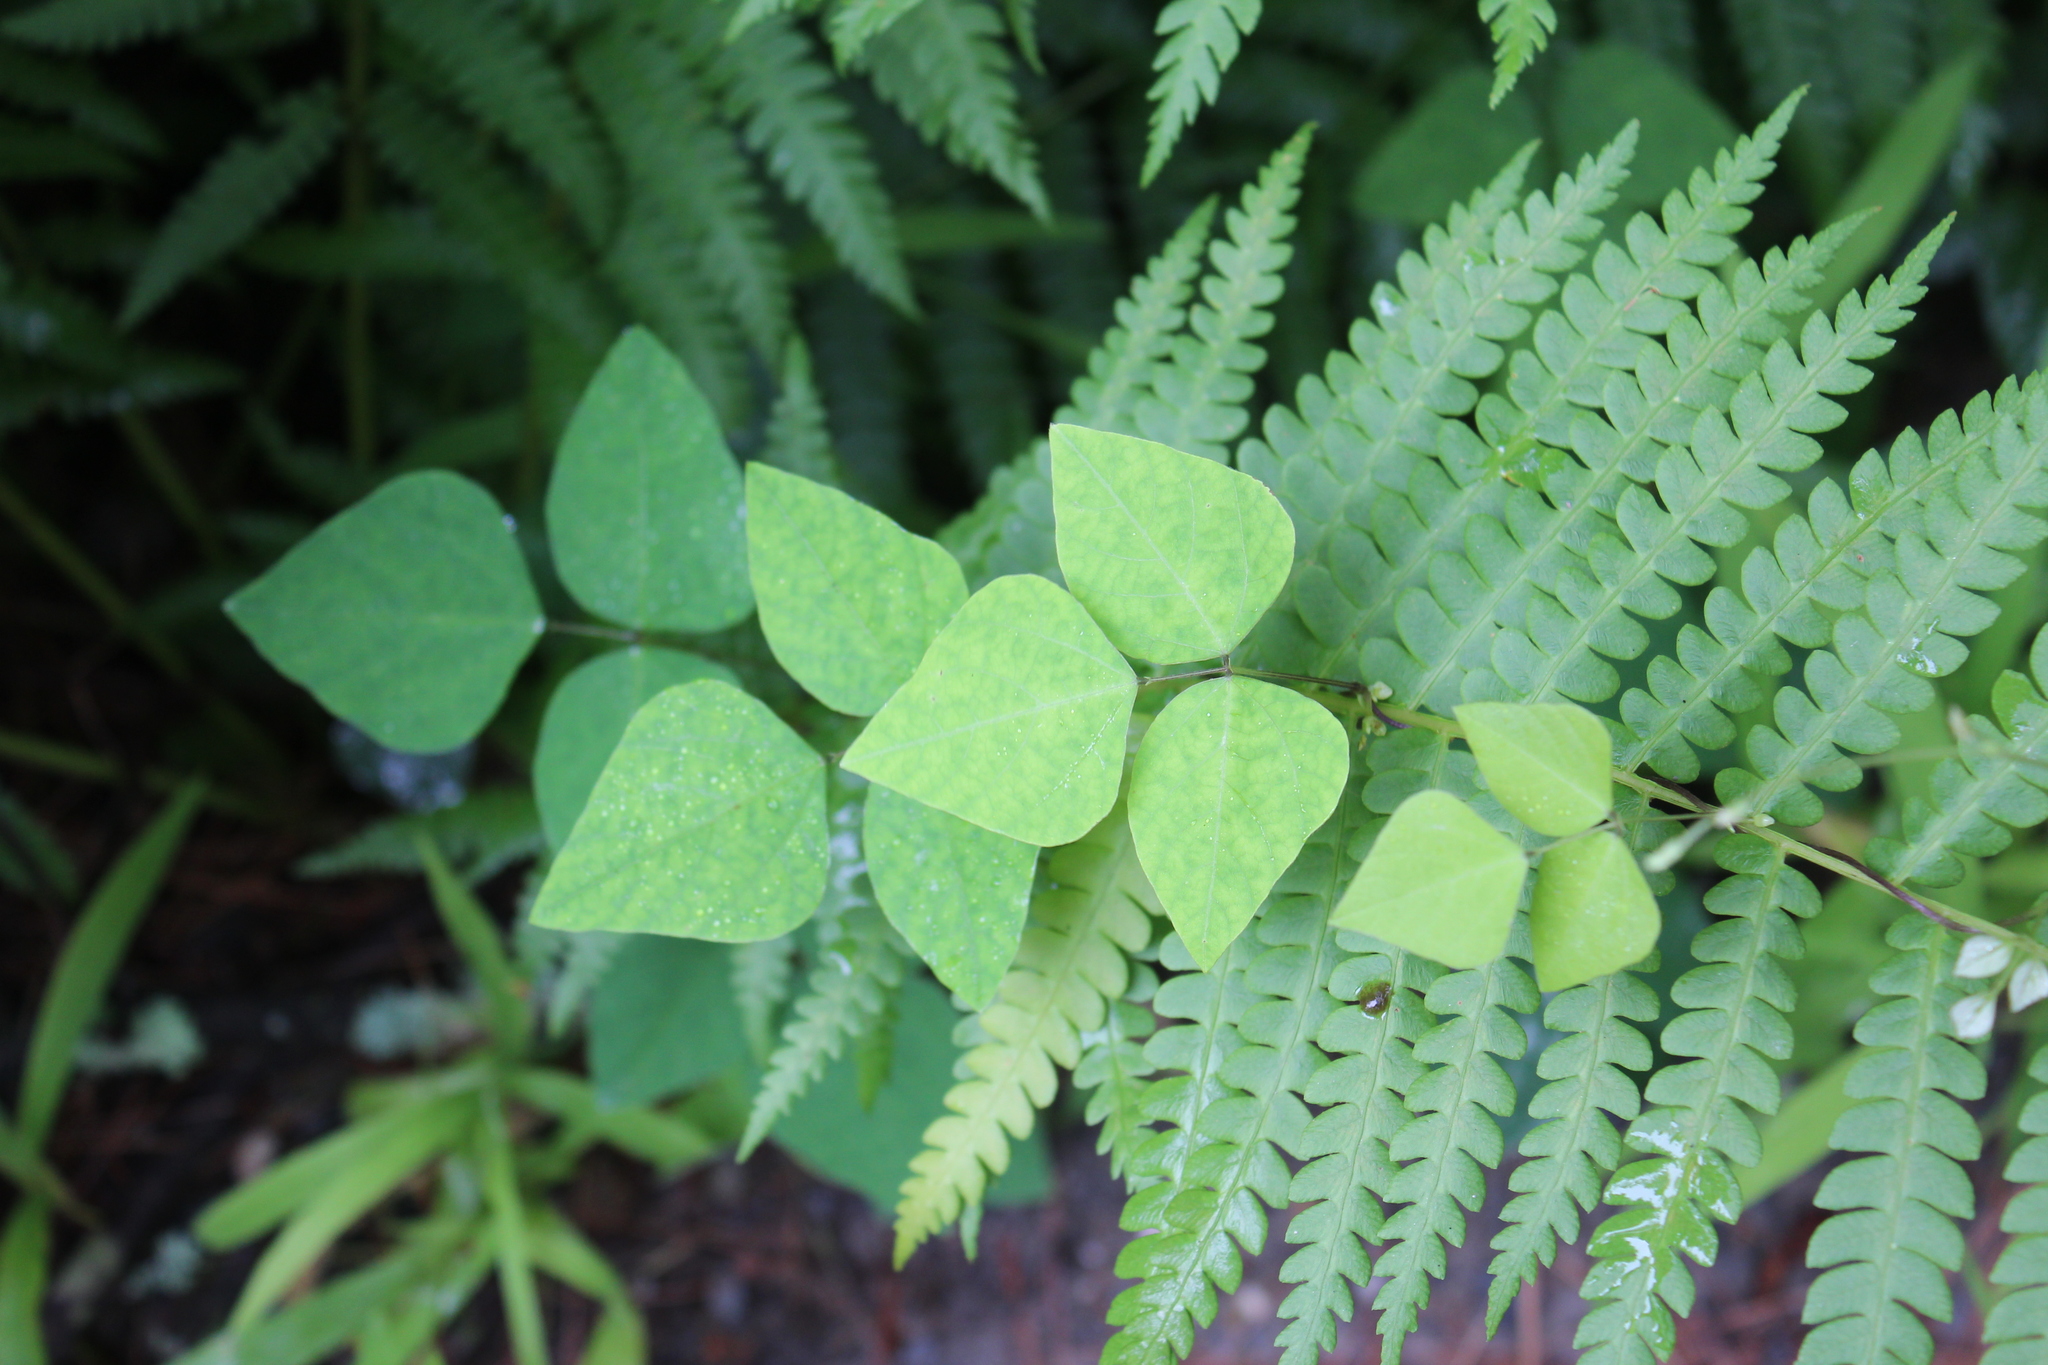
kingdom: Plantae
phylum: Tracheophyta
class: Magnoliopsida
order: Fabales
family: Fabaceae
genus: Amphicarpaea
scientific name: Amphicarpaea bracteata
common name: American hog peanut
